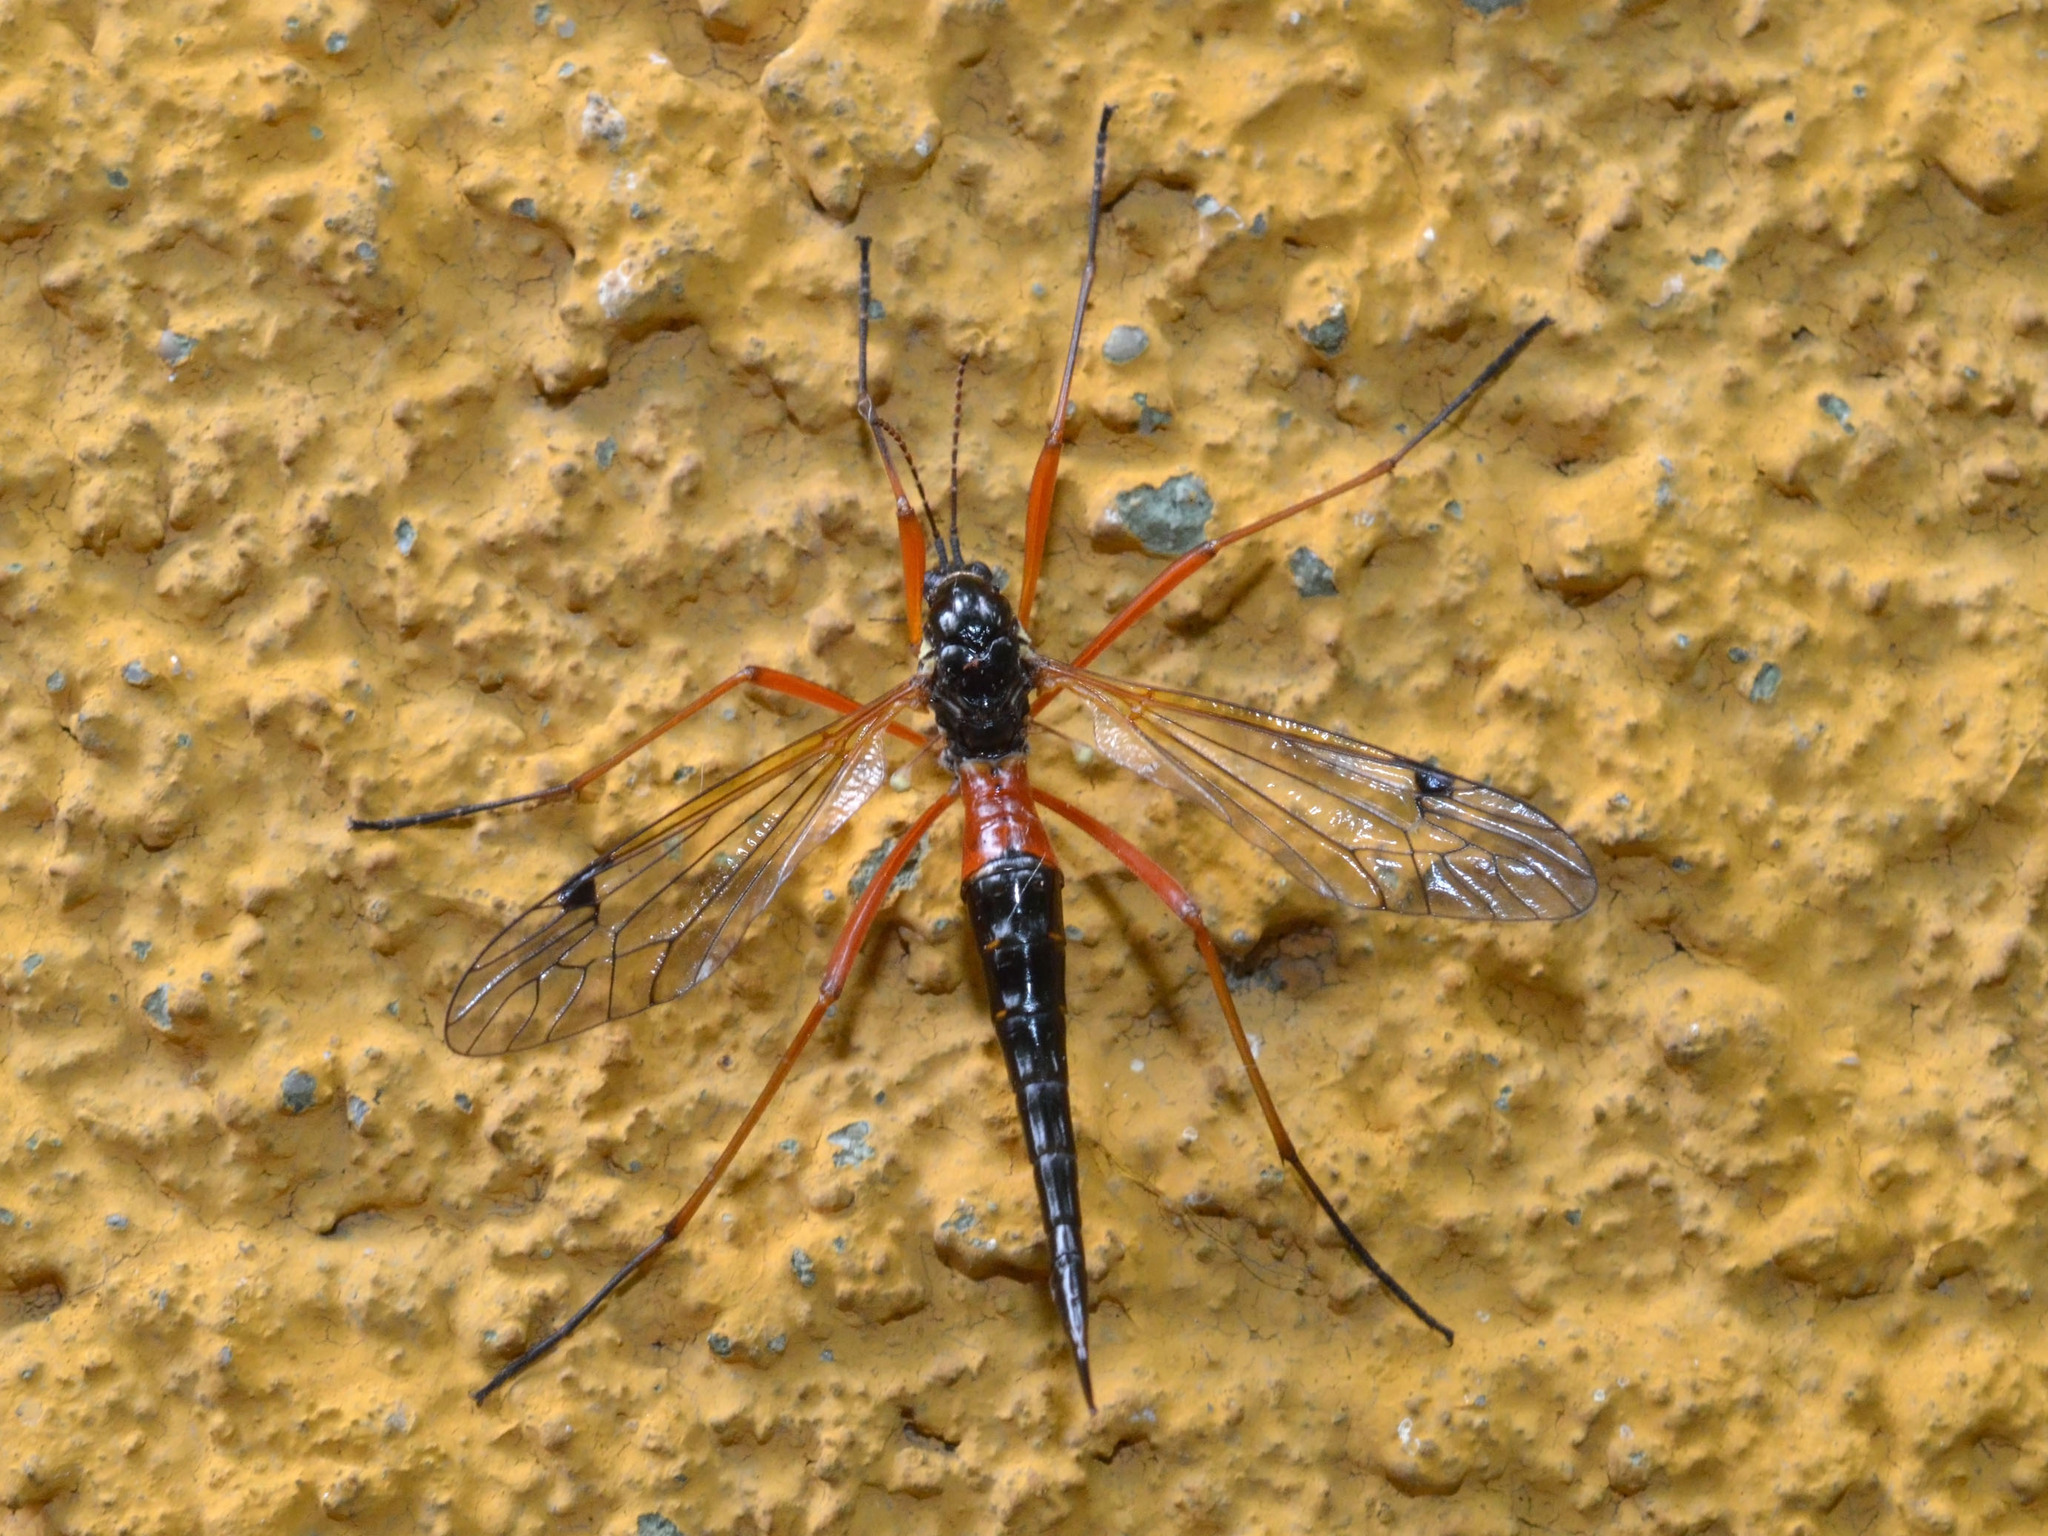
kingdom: Animalia
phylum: Arthropoda
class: Insecta
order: Diptera
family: Tipulidae
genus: Tanyptera
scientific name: Tanyptera atrata
